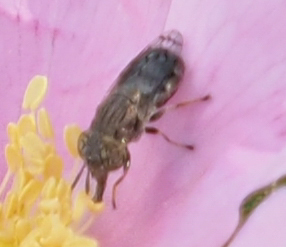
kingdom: Animalia
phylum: Arthropoda
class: Insecta
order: Diptera
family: Syrphidae
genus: Orthonevra
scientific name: Orthonevra nitida
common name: Wavy mucksucker
